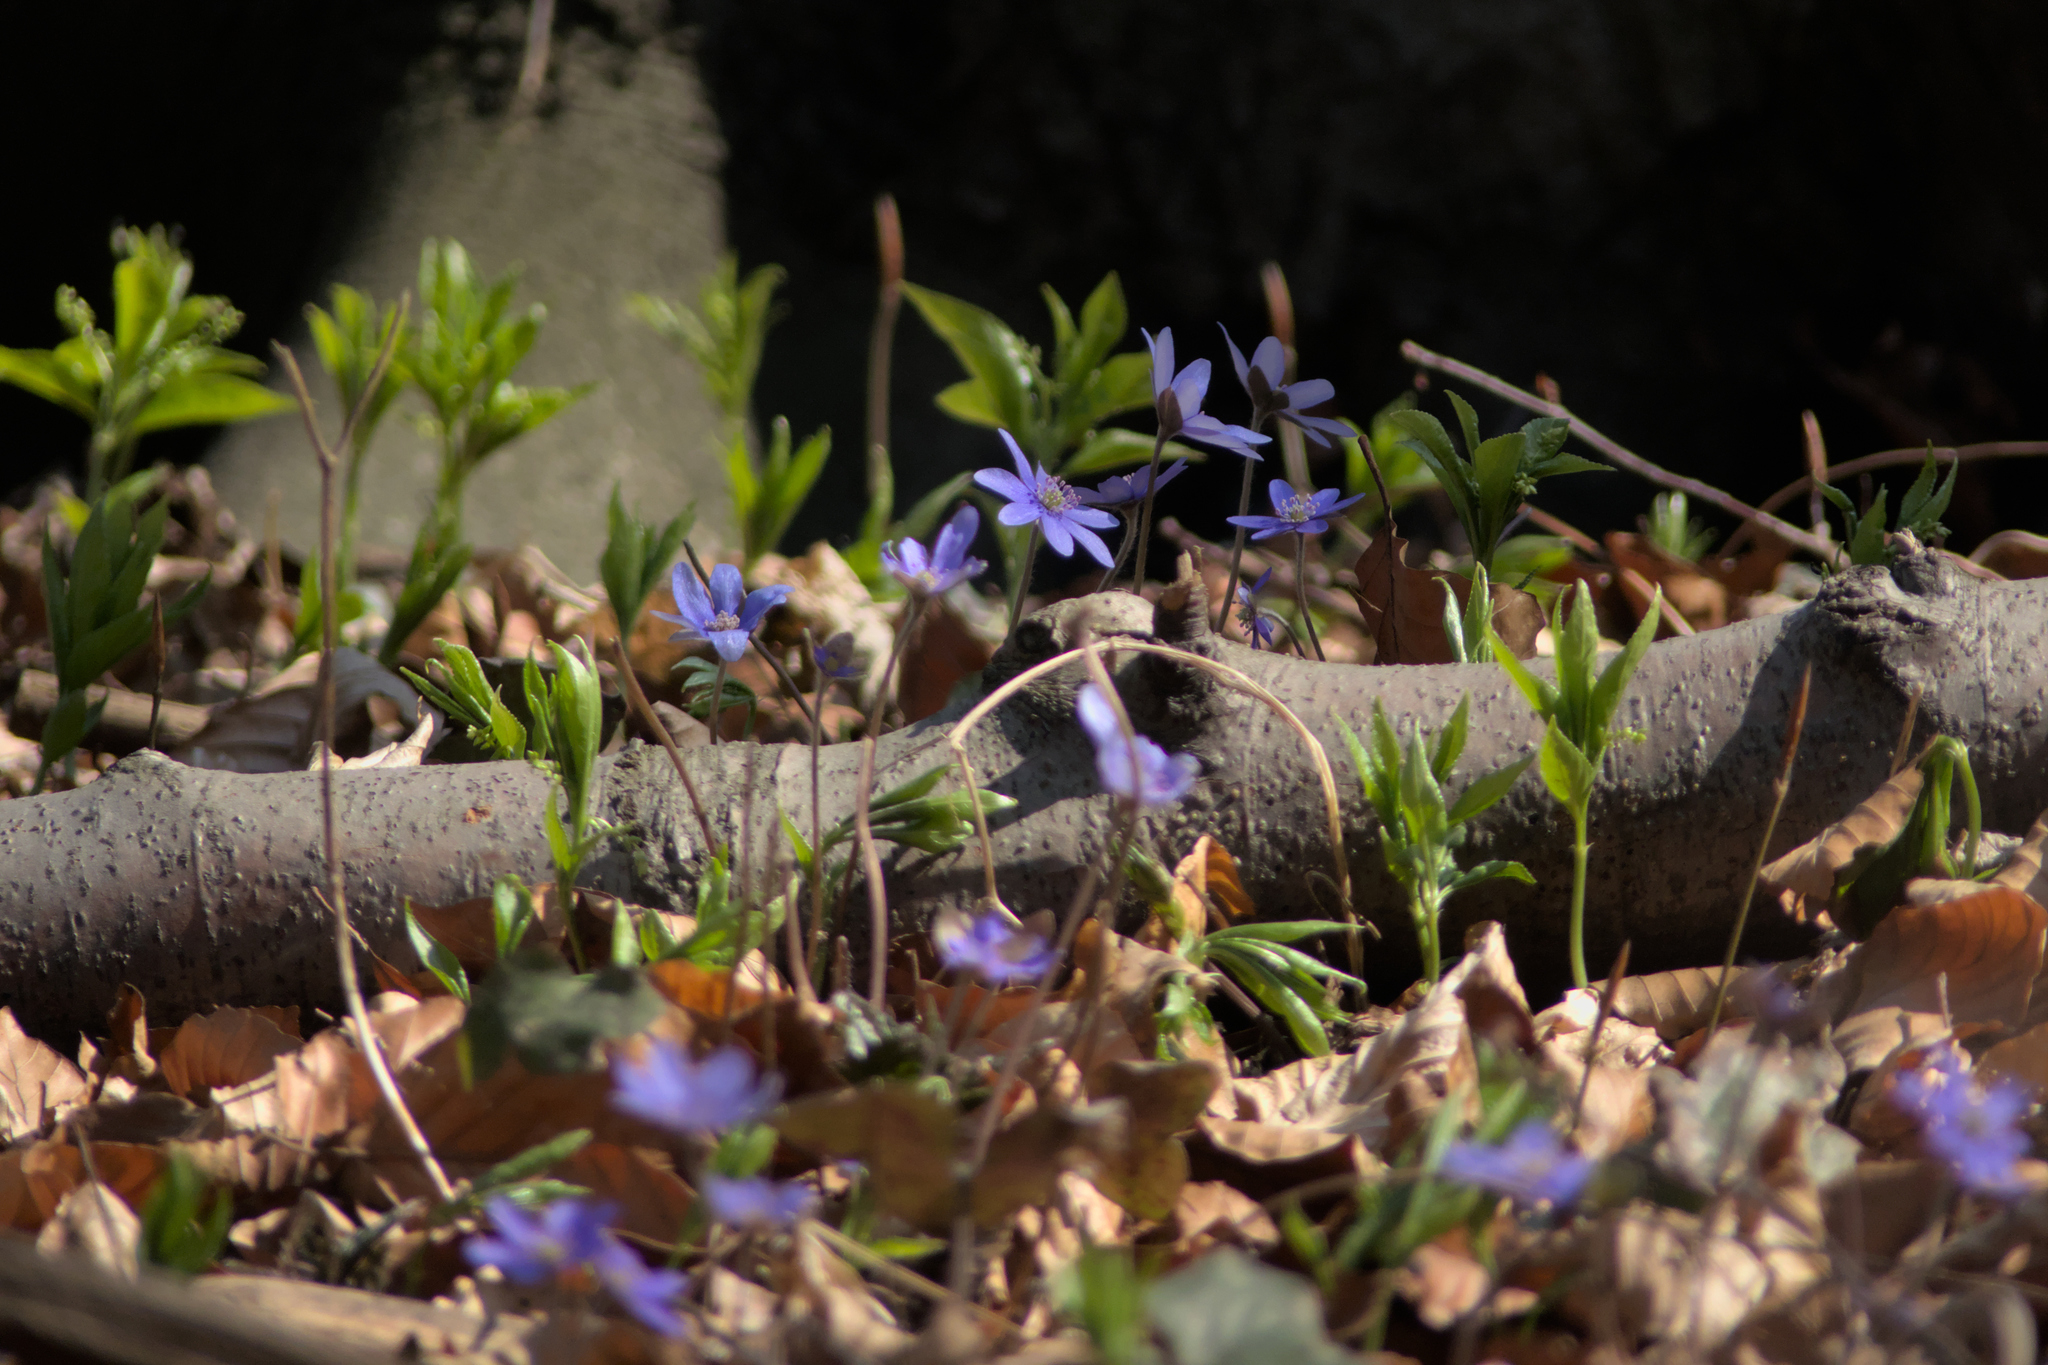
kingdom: Plantae
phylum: Tracheophyta
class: Magnoliopsida
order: Ranunculales
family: Ranunculaceae
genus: Hepatica
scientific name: Hepatica nobilis
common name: Liverleaf
